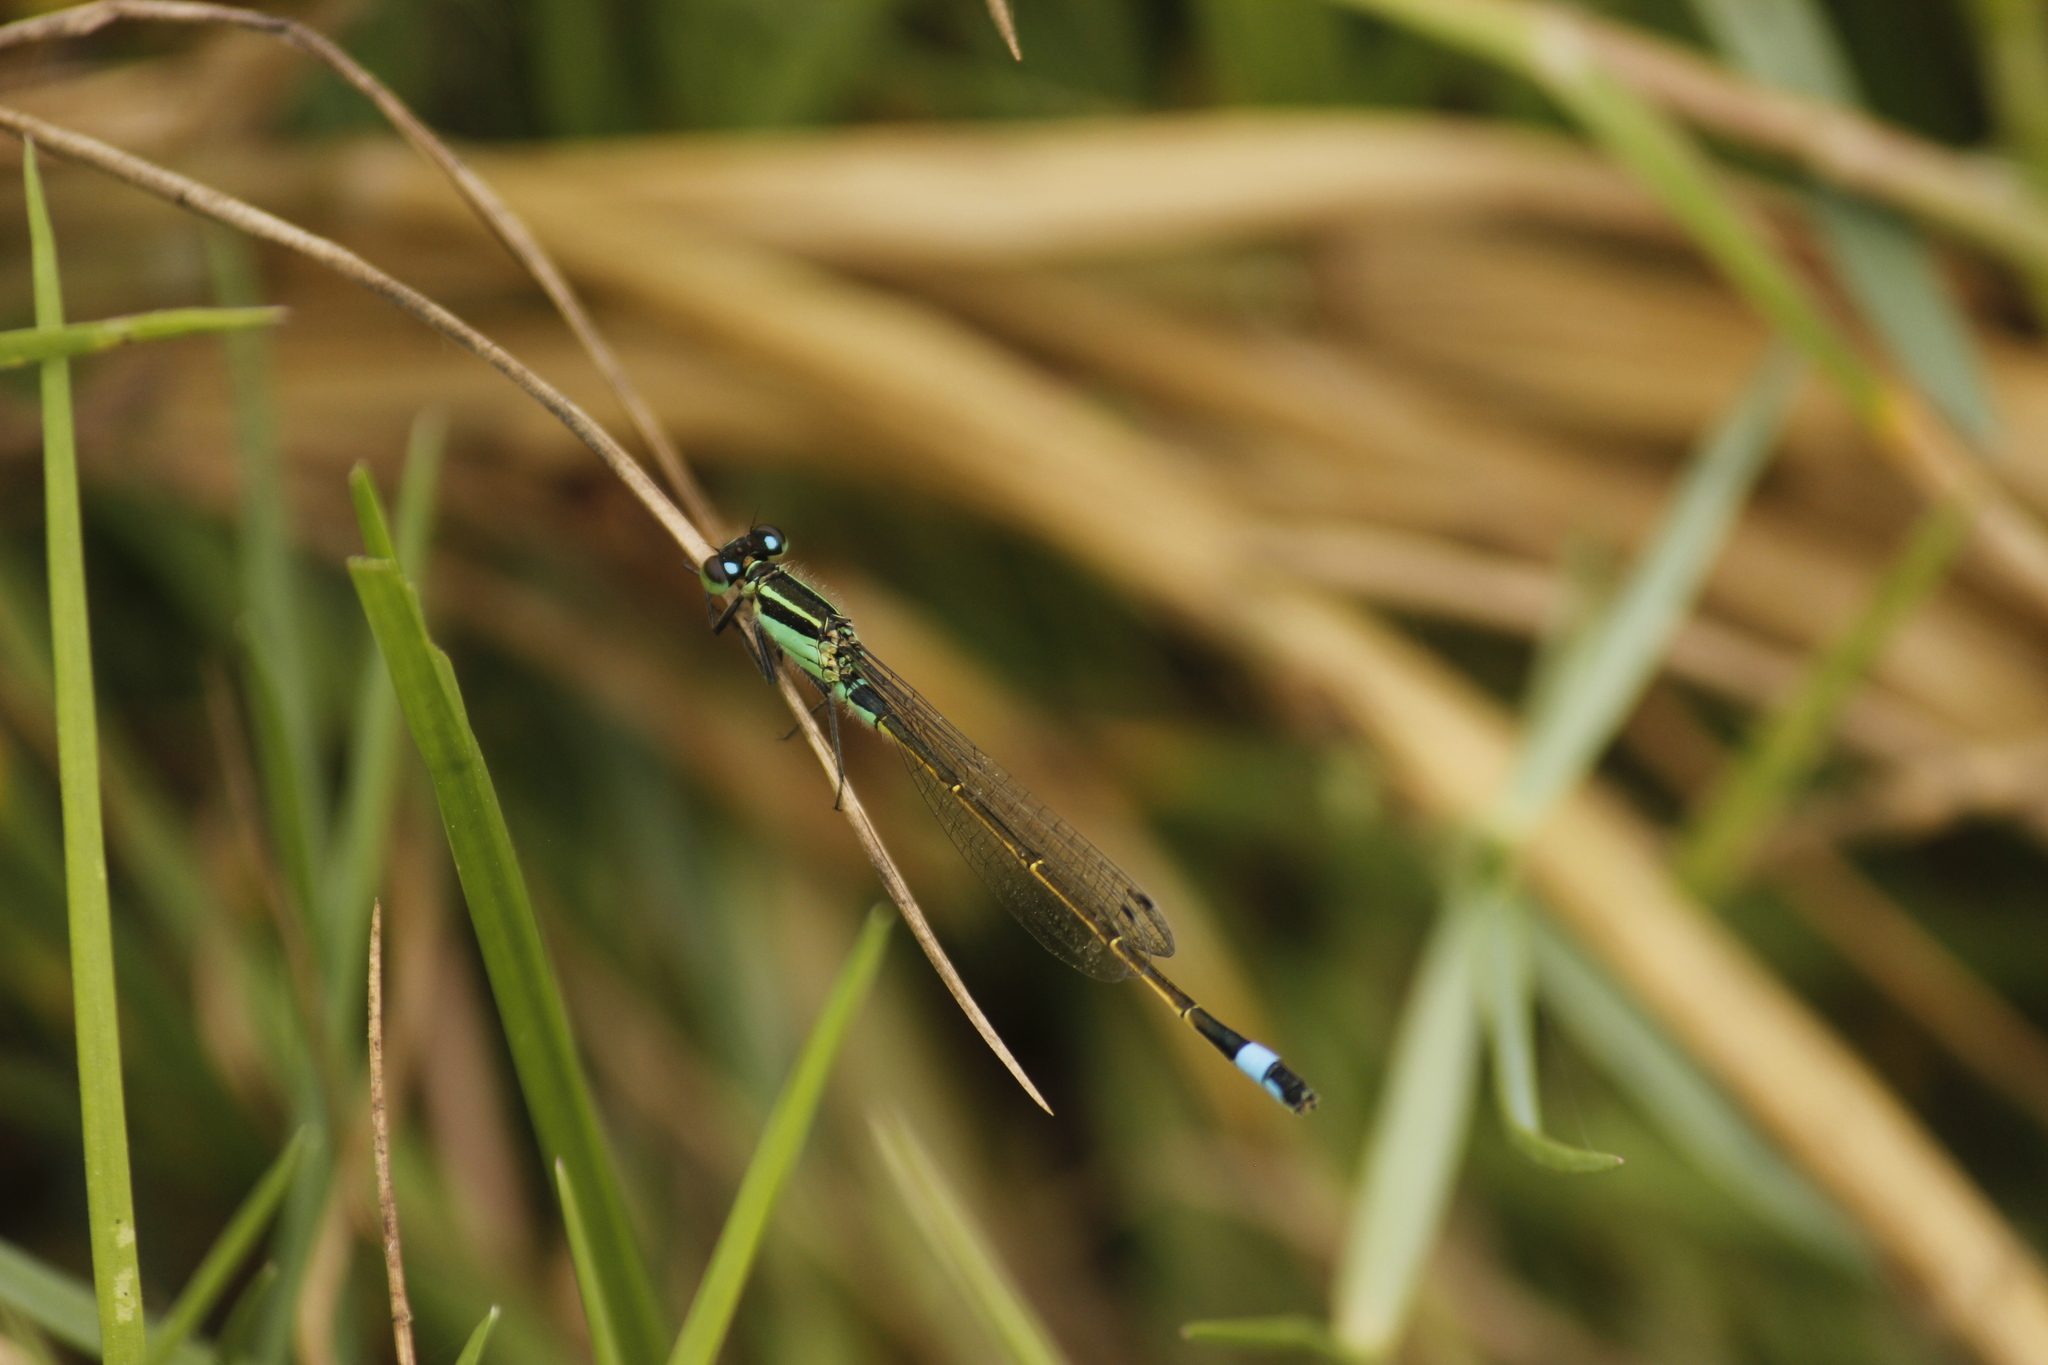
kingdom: Animalia
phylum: Arthropoda
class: Insecta
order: Odonata
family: Coenagrionidae
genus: Ischnura
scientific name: Ischnura ramburii
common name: Rambur's forktail
